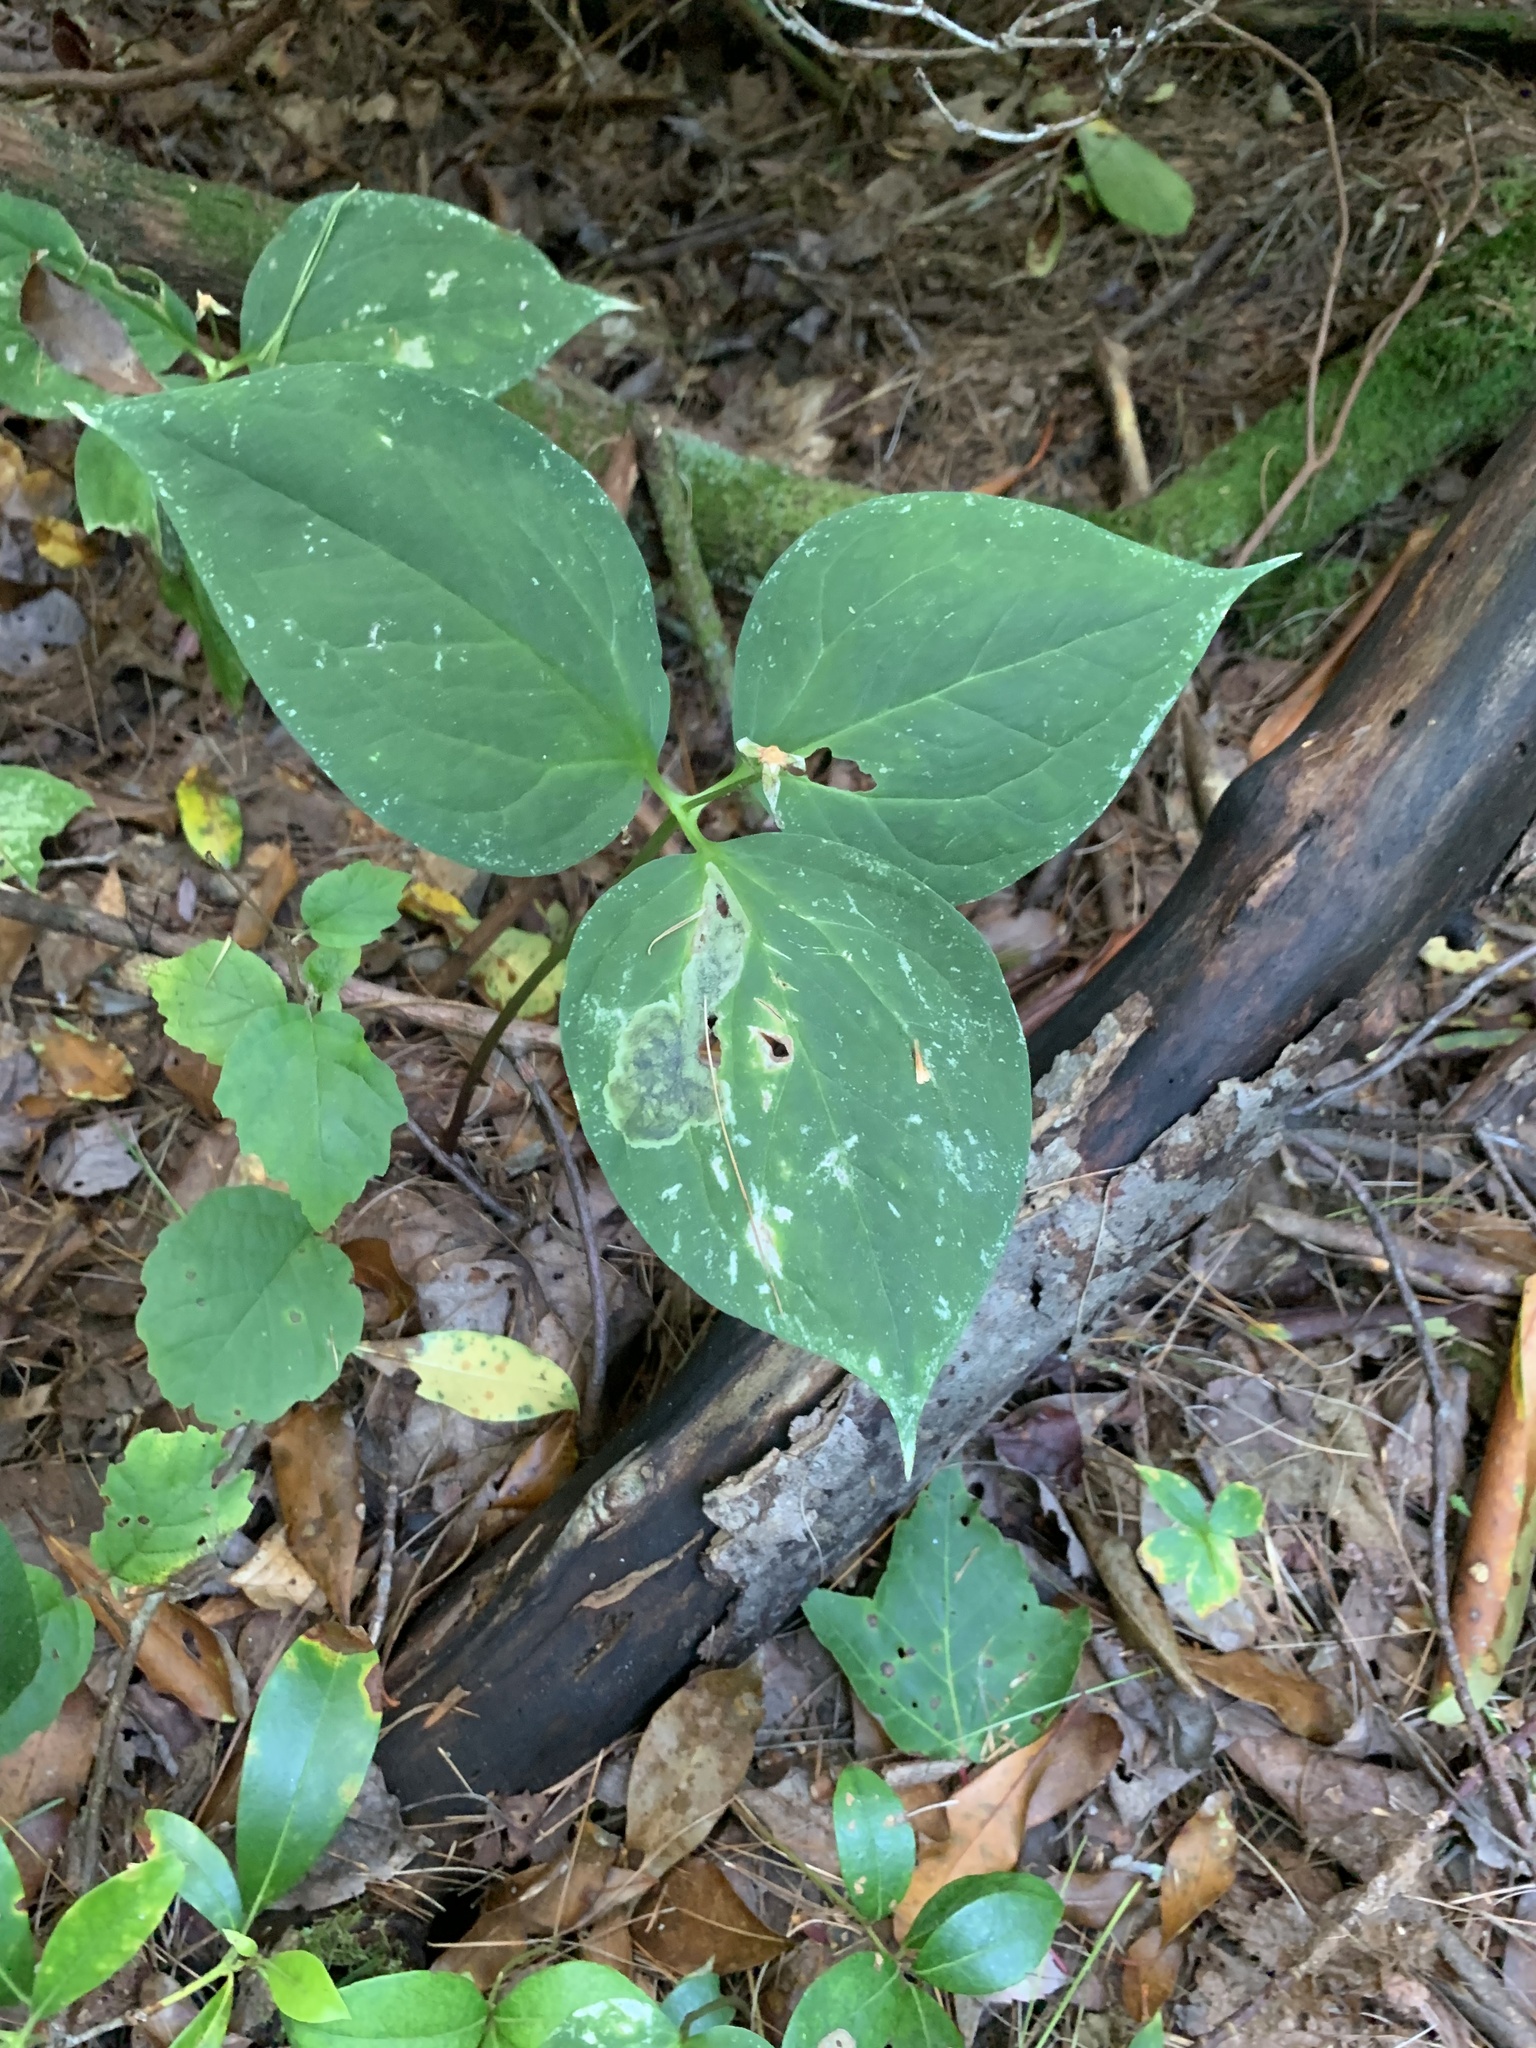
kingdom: Animalia
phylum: Arthropoda
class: Insecta
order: Diptera
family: Scathophagidae
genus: Leptopa
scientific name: Leptopa
